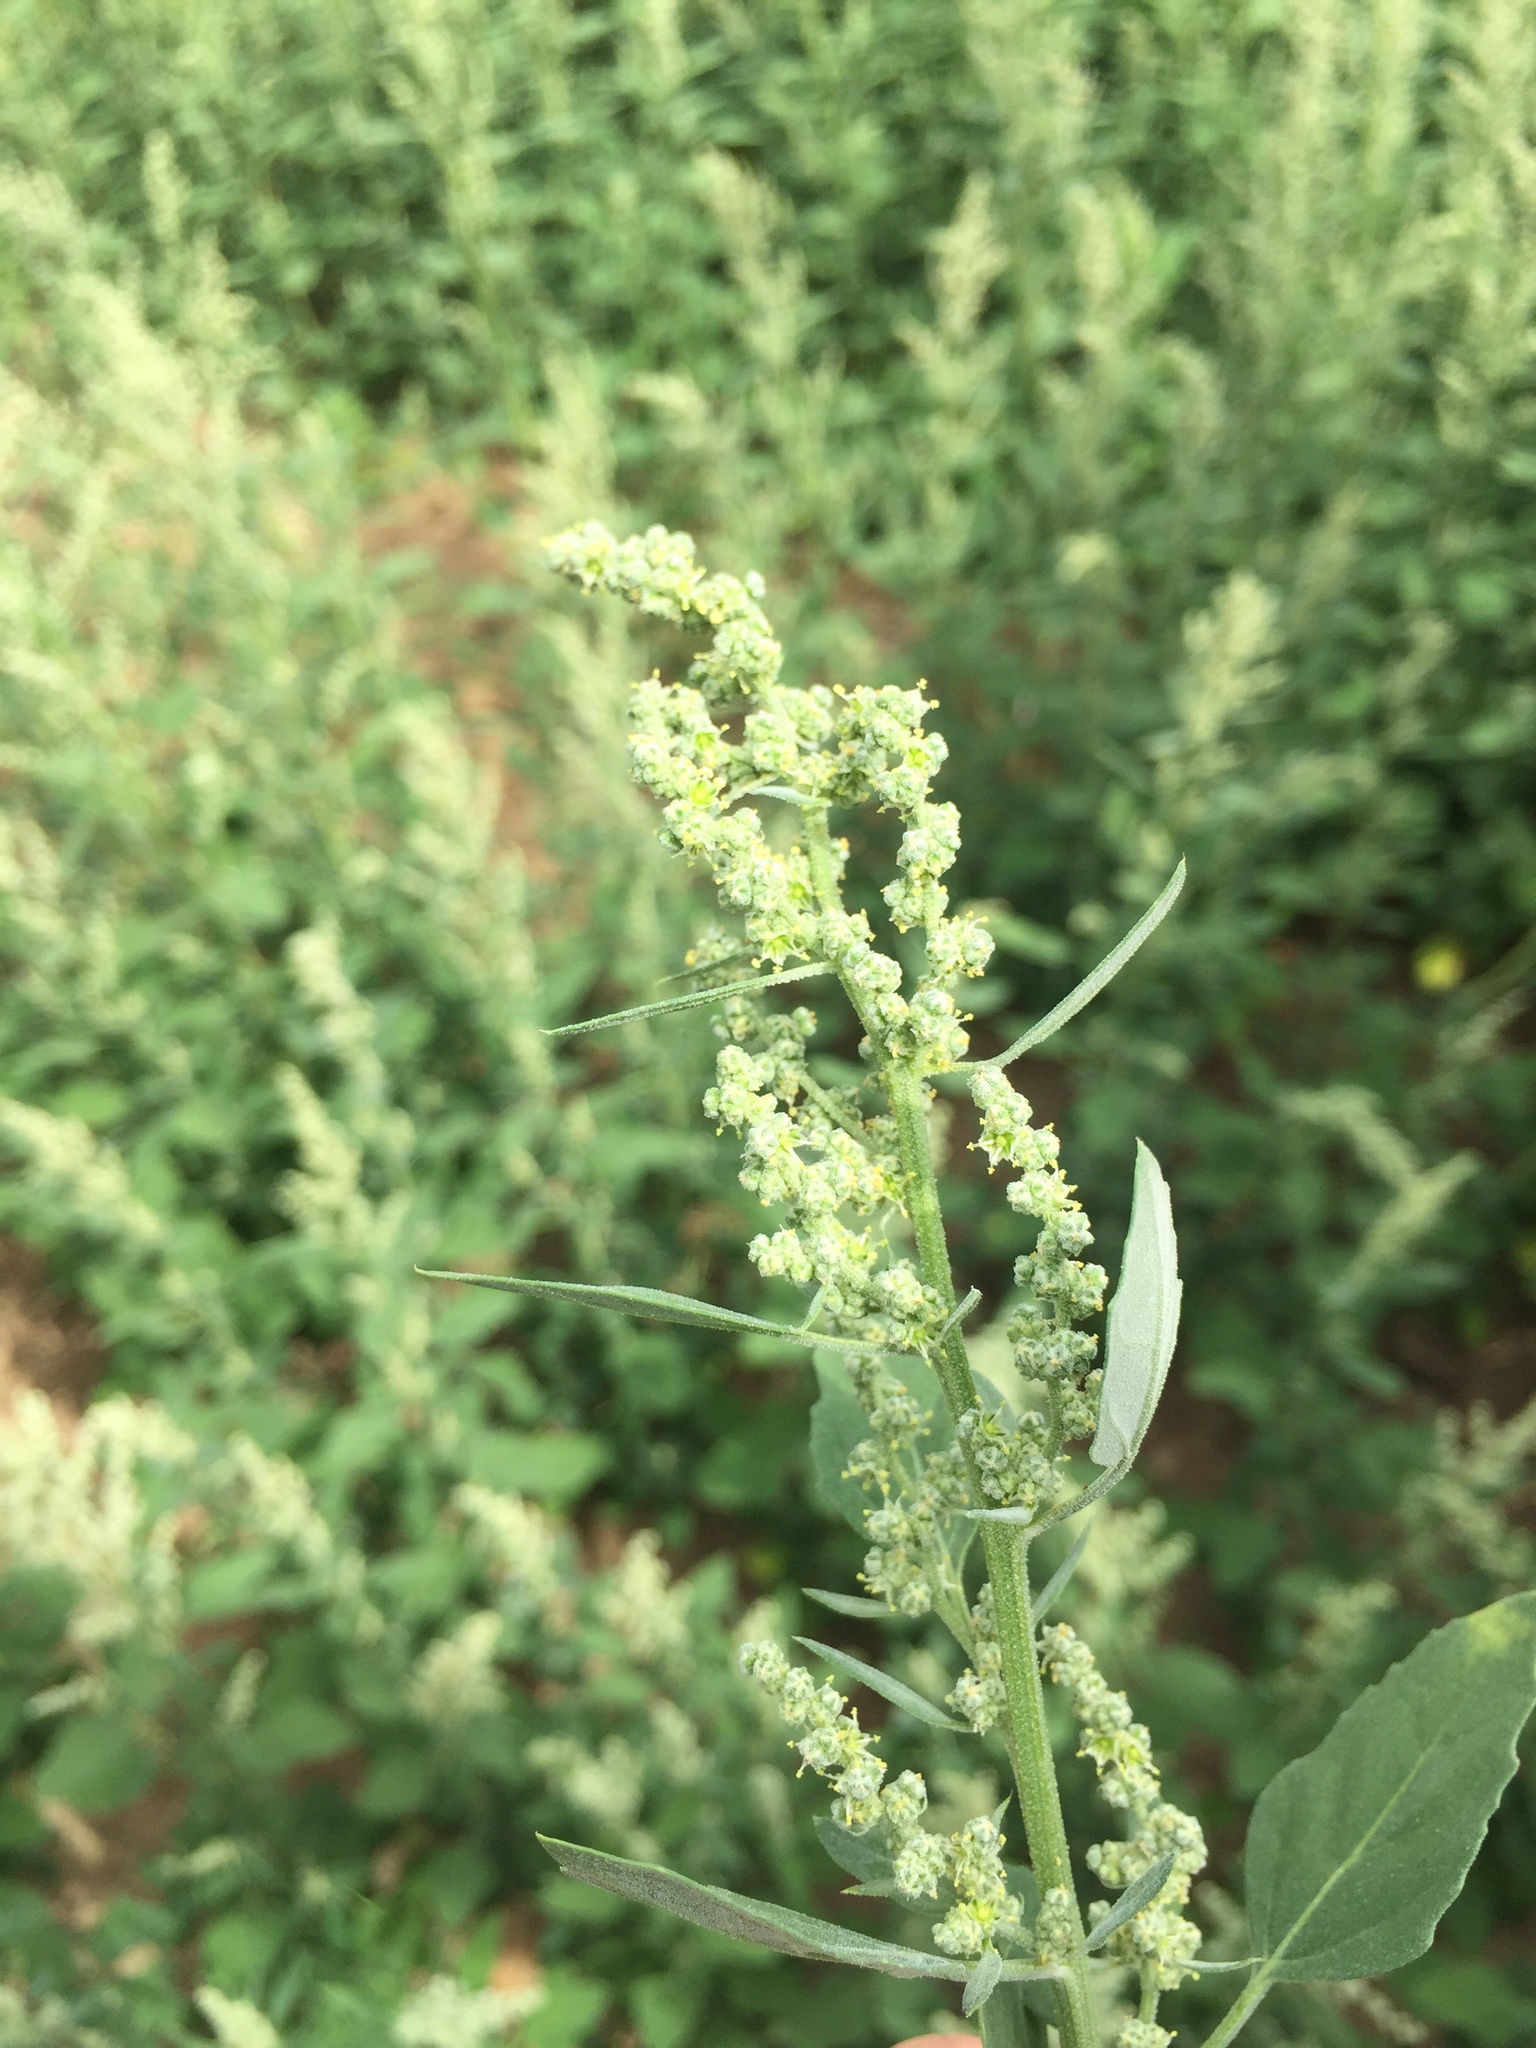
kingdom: Plantae
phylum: Tracheophyta
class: Magnoliopsida
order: Caryophyllales
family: Amaranthaceae
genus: Chenopodium
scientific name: Chenopodium album
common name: Fat-hen
